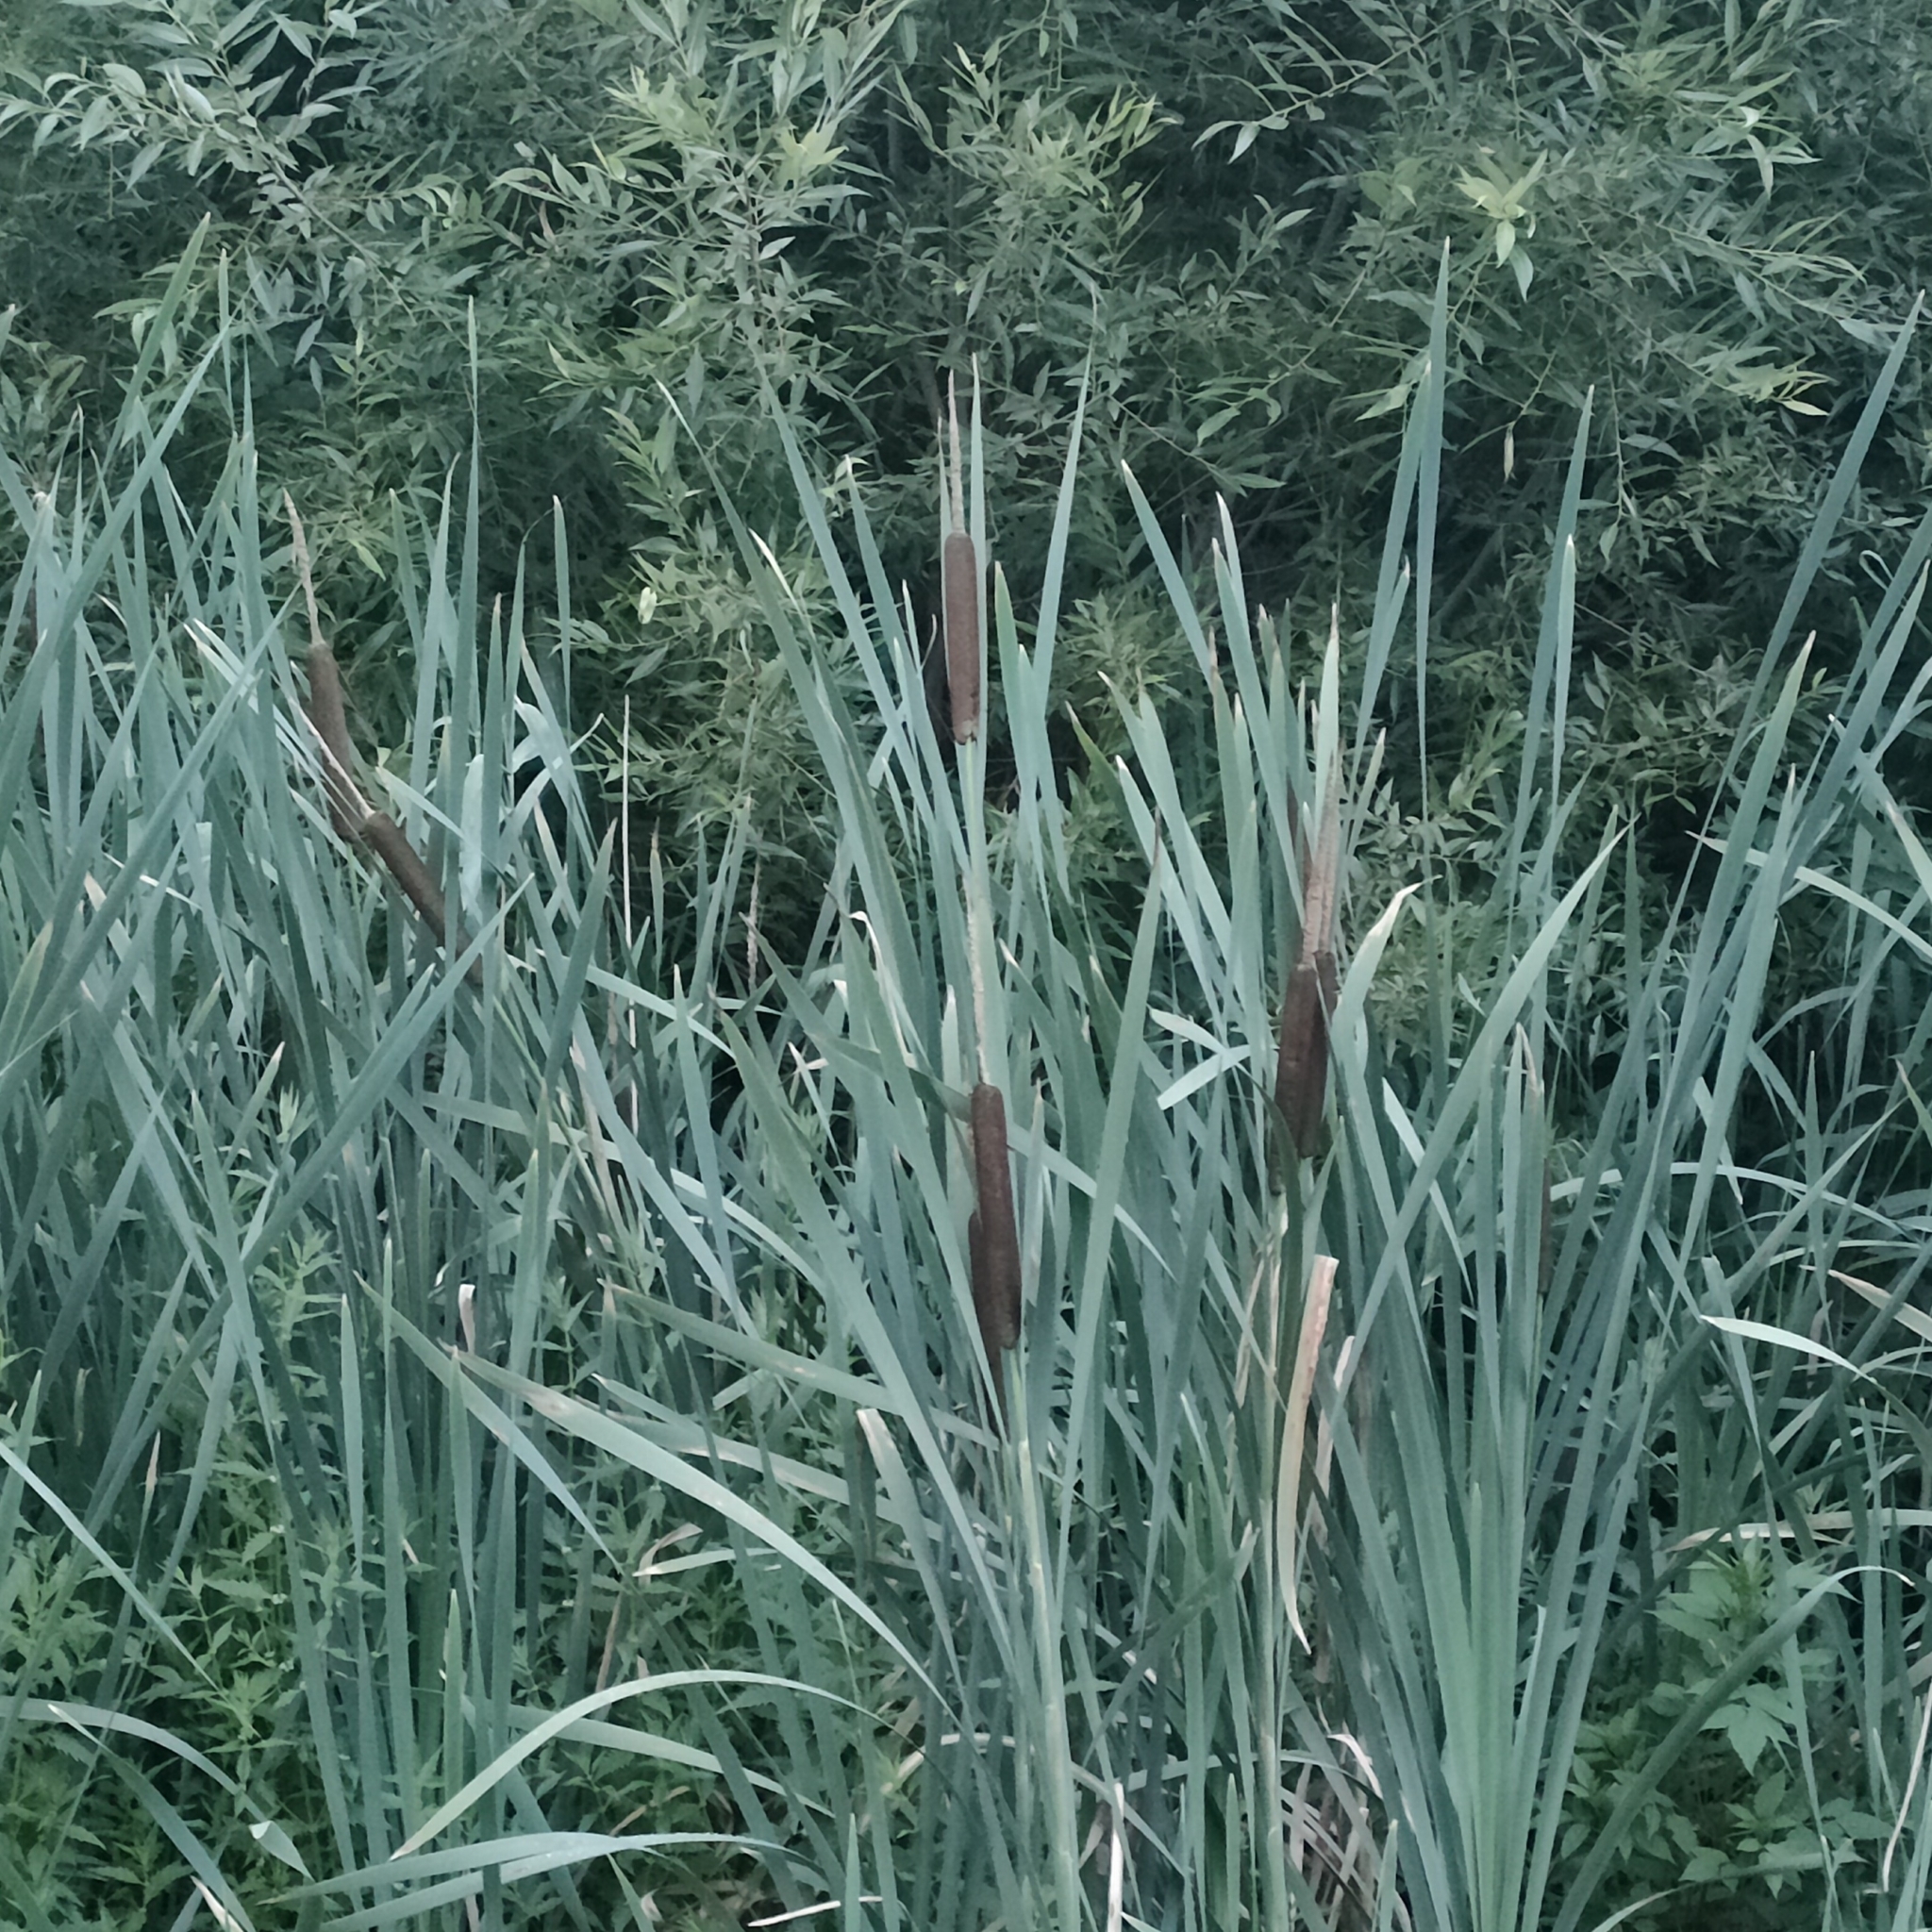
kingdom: Plantae
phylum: Tracheophyta
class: Liliopsida
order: Poales
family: Typhaceae
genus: Typha
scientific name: Typha latifolia
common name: Broadleaf cattail
